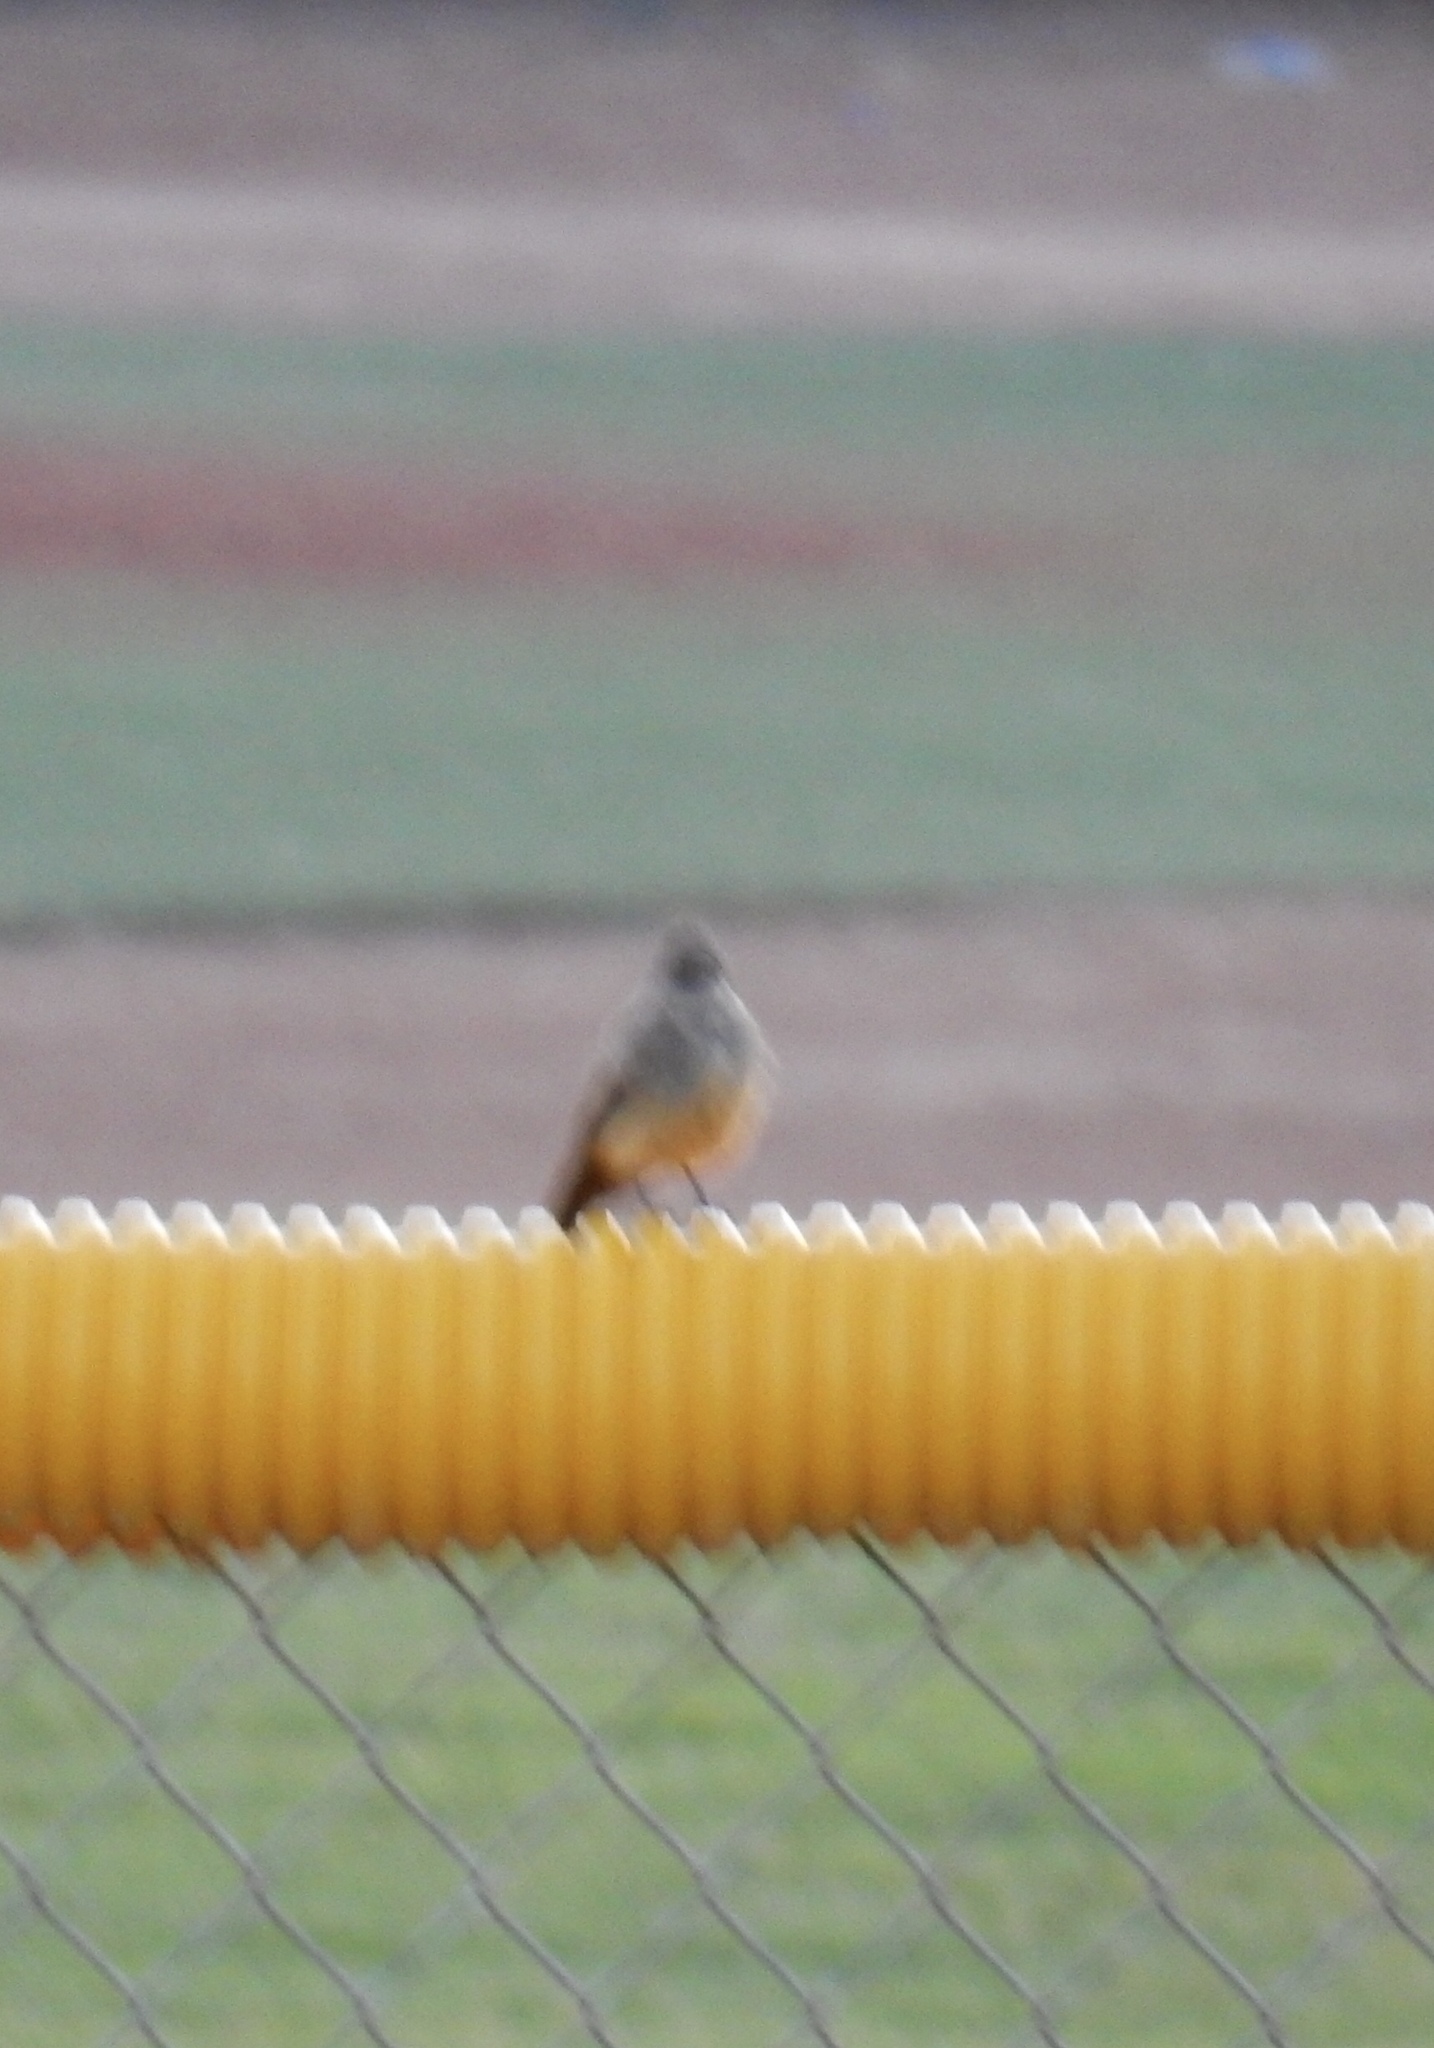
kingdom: Animalia
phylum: Chordata
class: Aves
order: Passeriformes
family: Tyrannidae
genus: Sayornis
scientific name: Sayornis saya
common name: Say's phoebe
